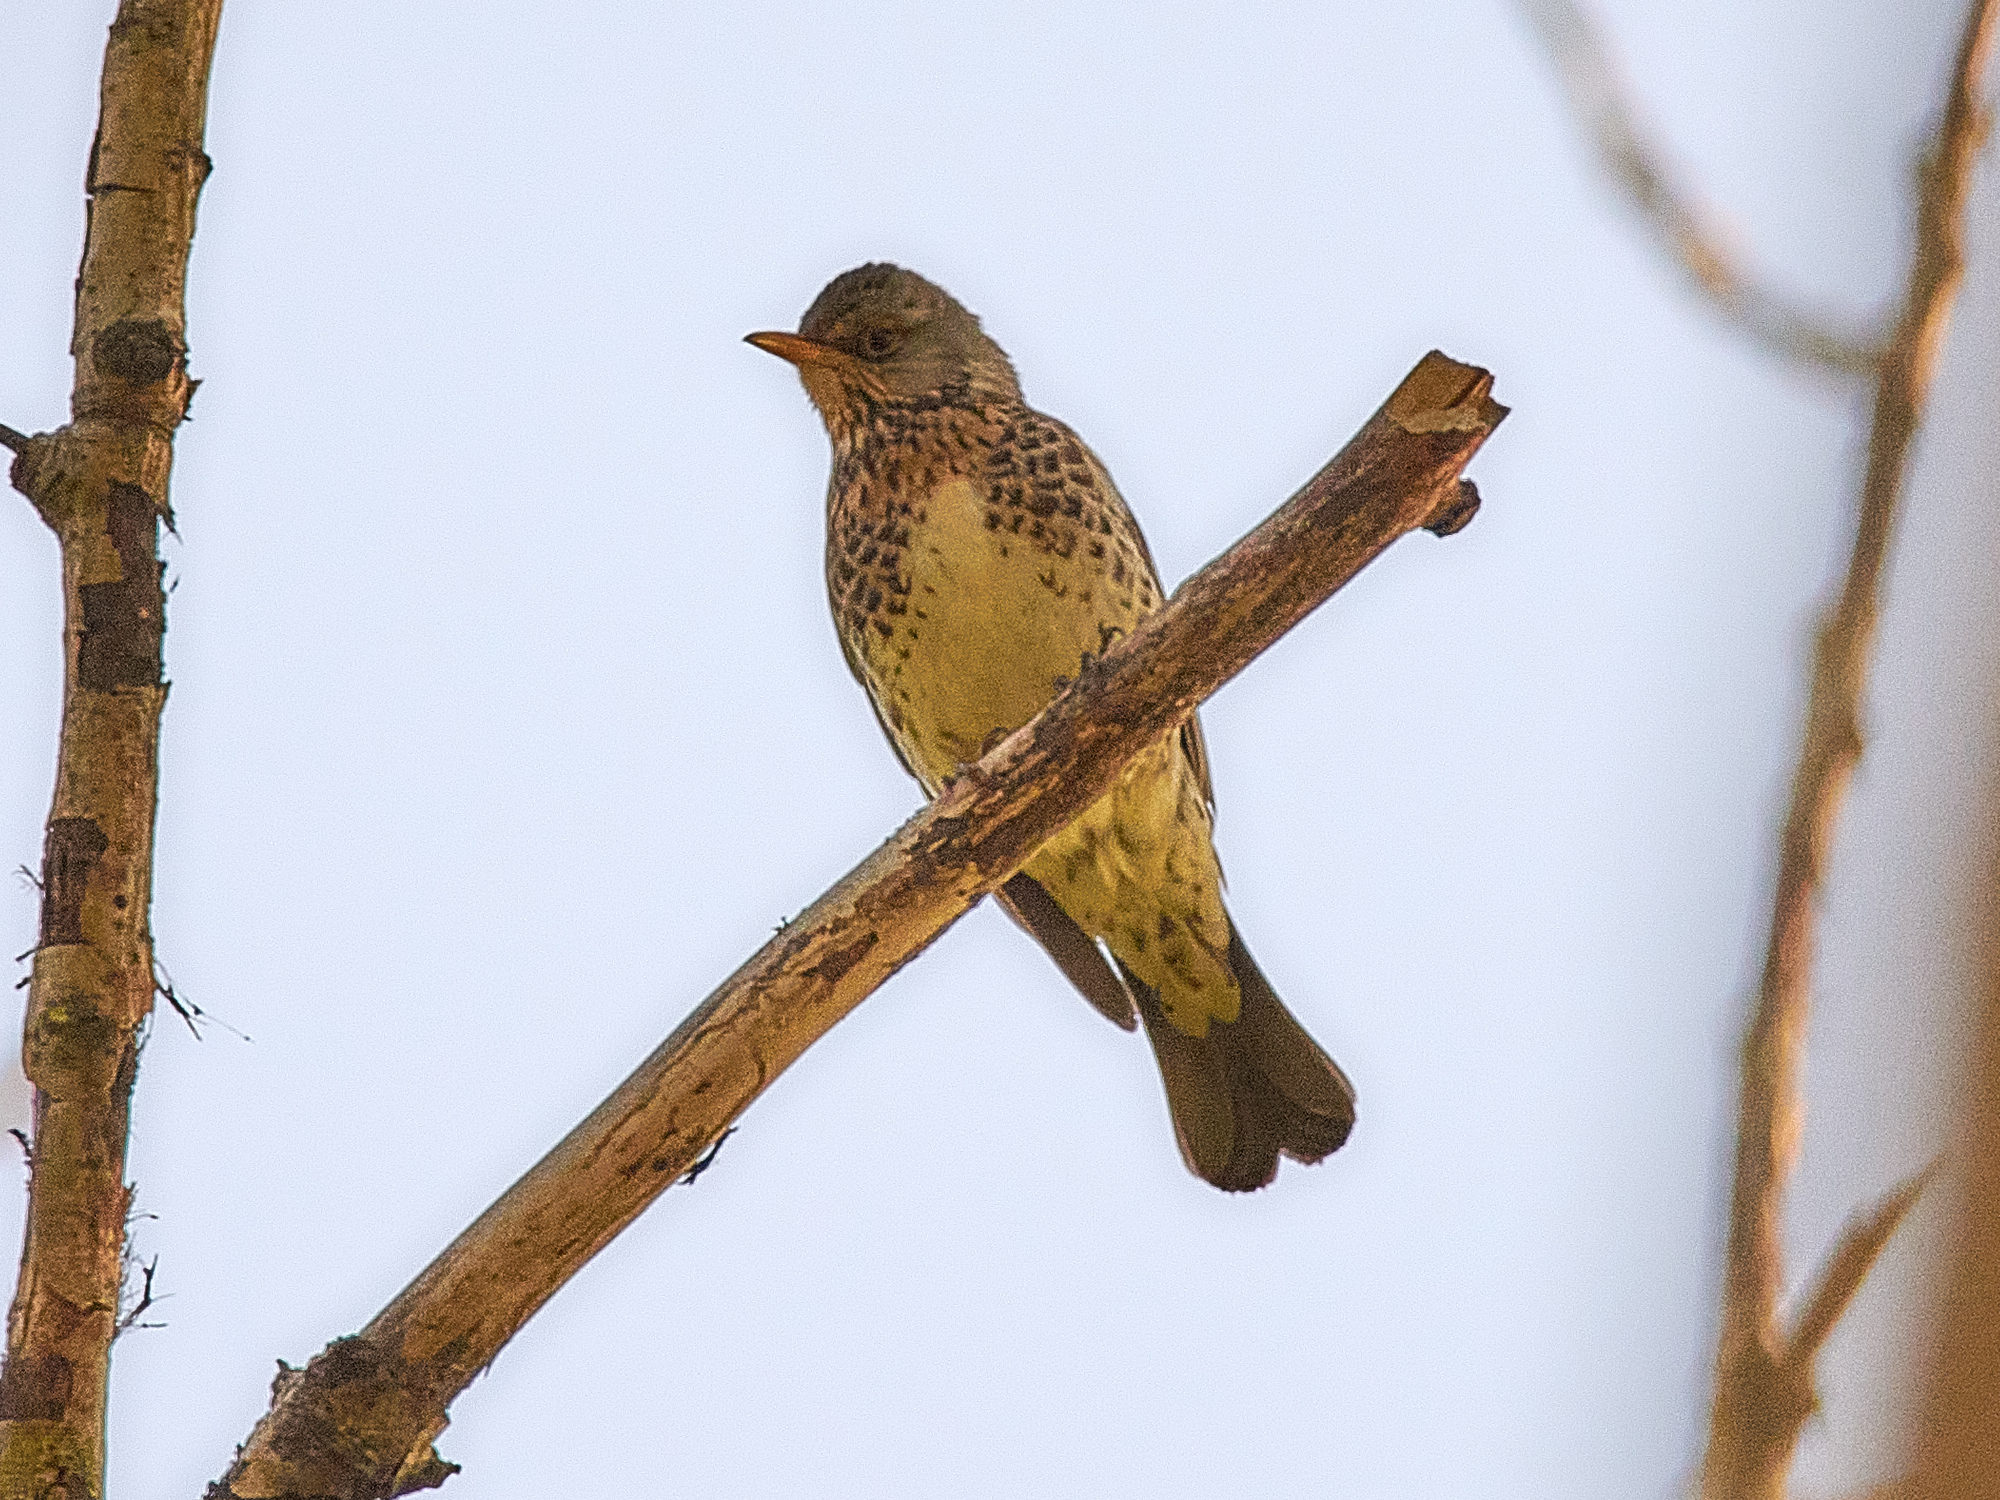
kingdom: Animalia
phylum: Chordata
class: Aves
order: Passeriformes
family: Turdidae
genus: Turdus
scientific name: Turdus pilaris
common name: Fieldfare
